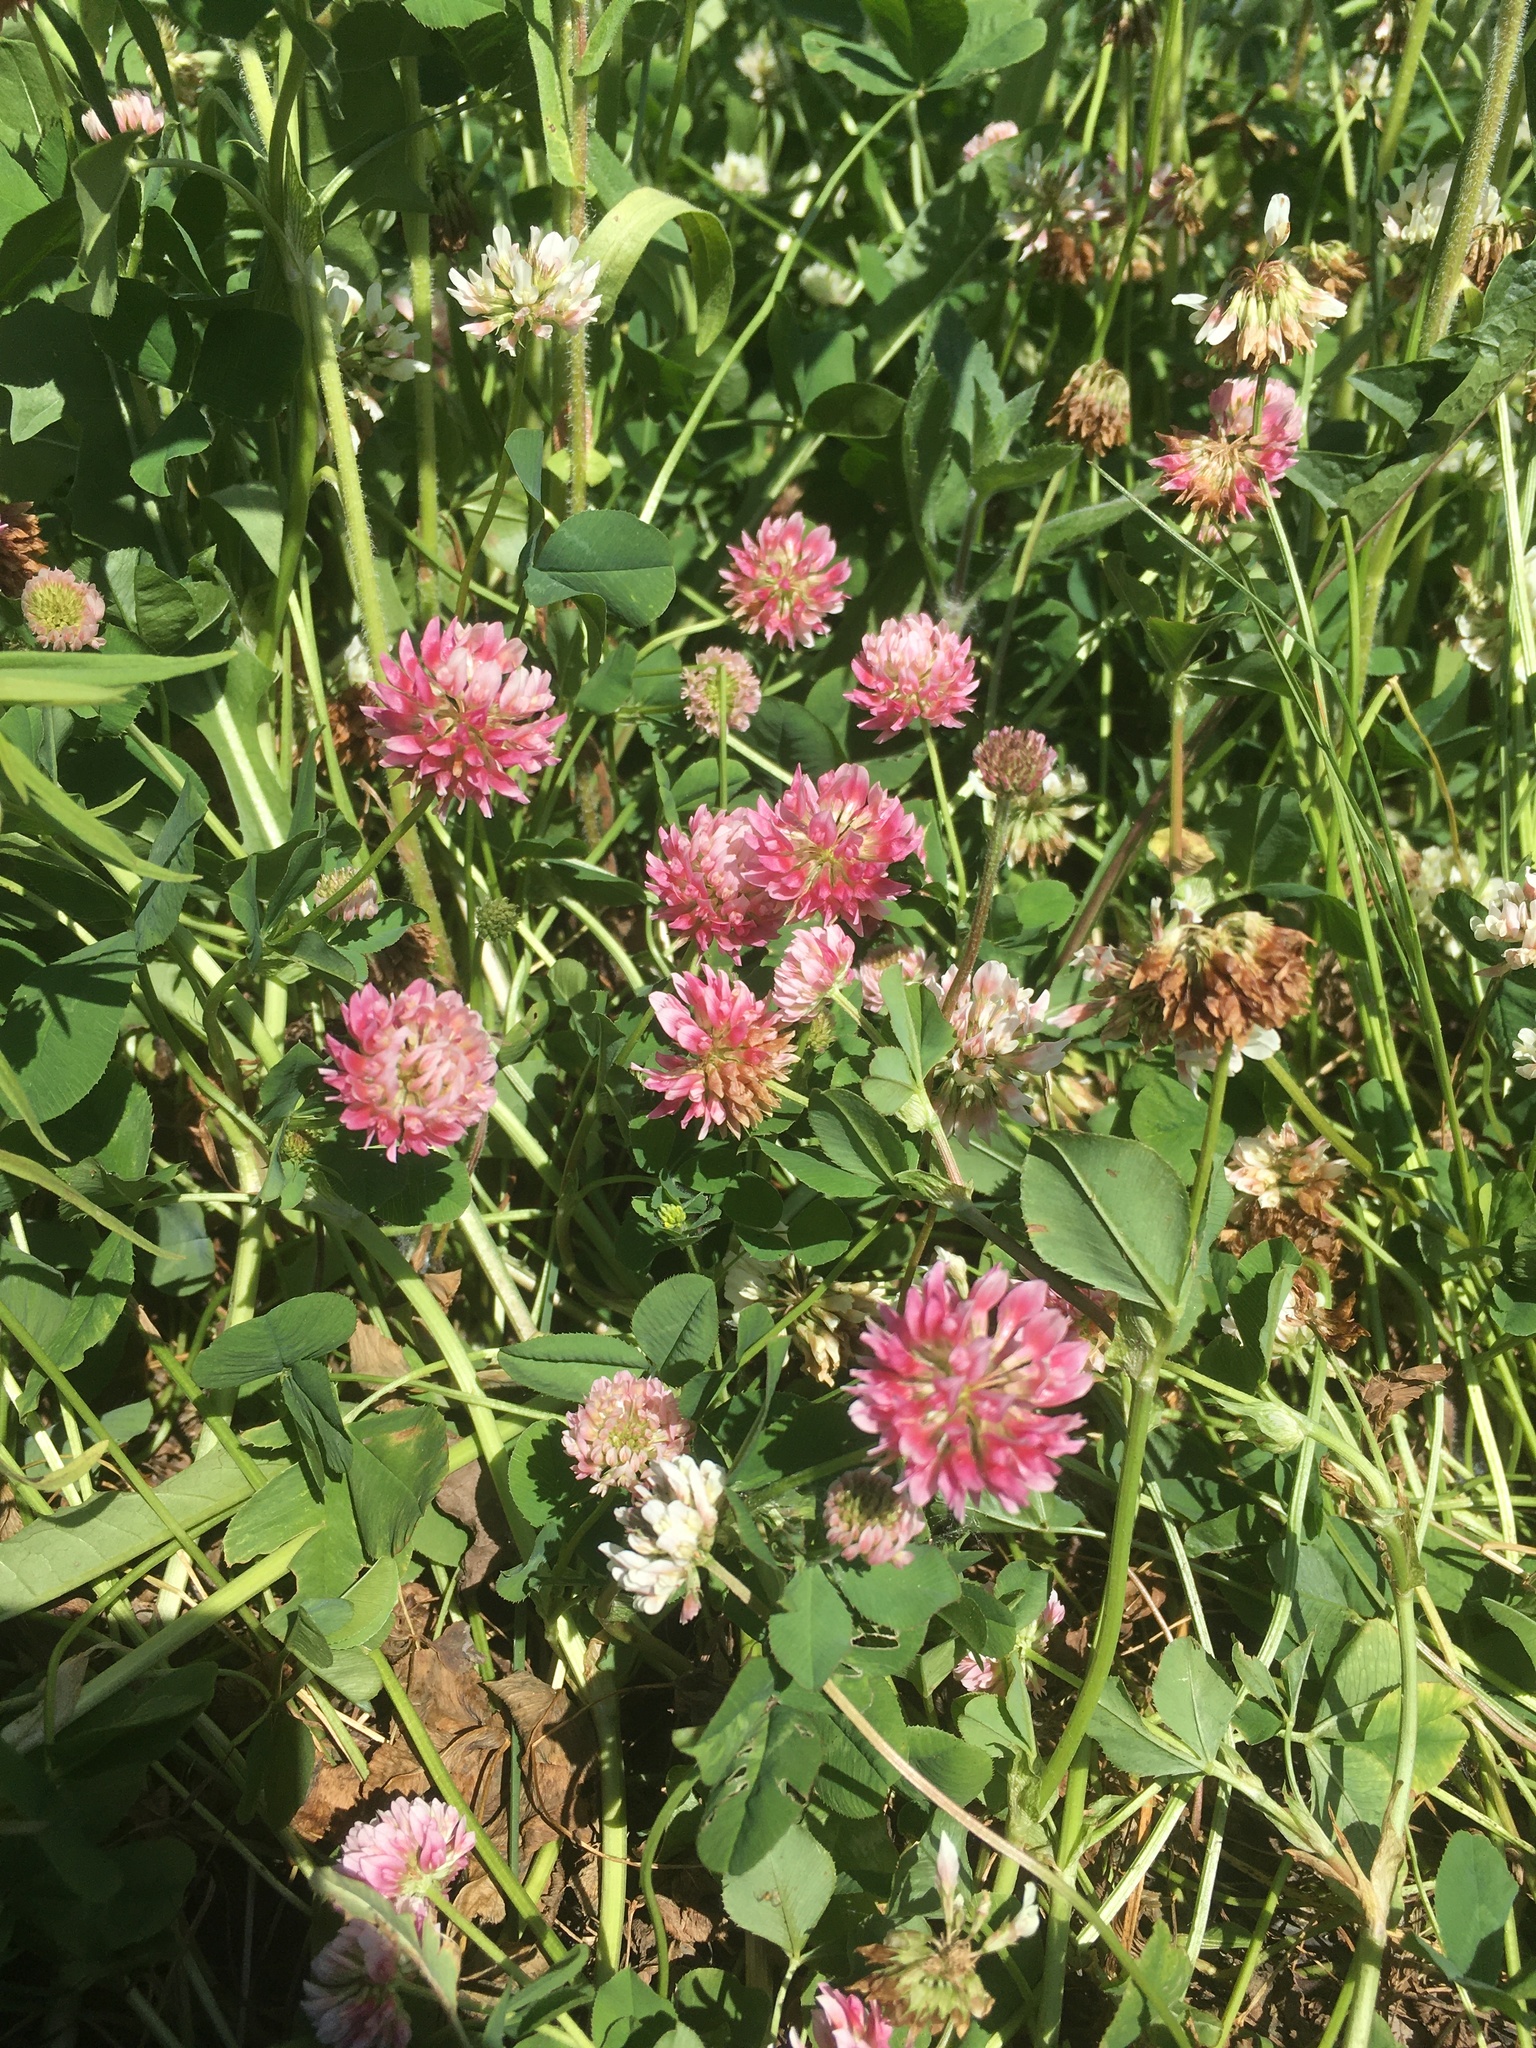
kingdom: Plantae
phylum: Tracheophyta
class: Magnoliopsida
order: Fabales
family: Fabaceae
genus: Trifolium
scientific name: Trifolium hybridum
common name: Alsike clover
